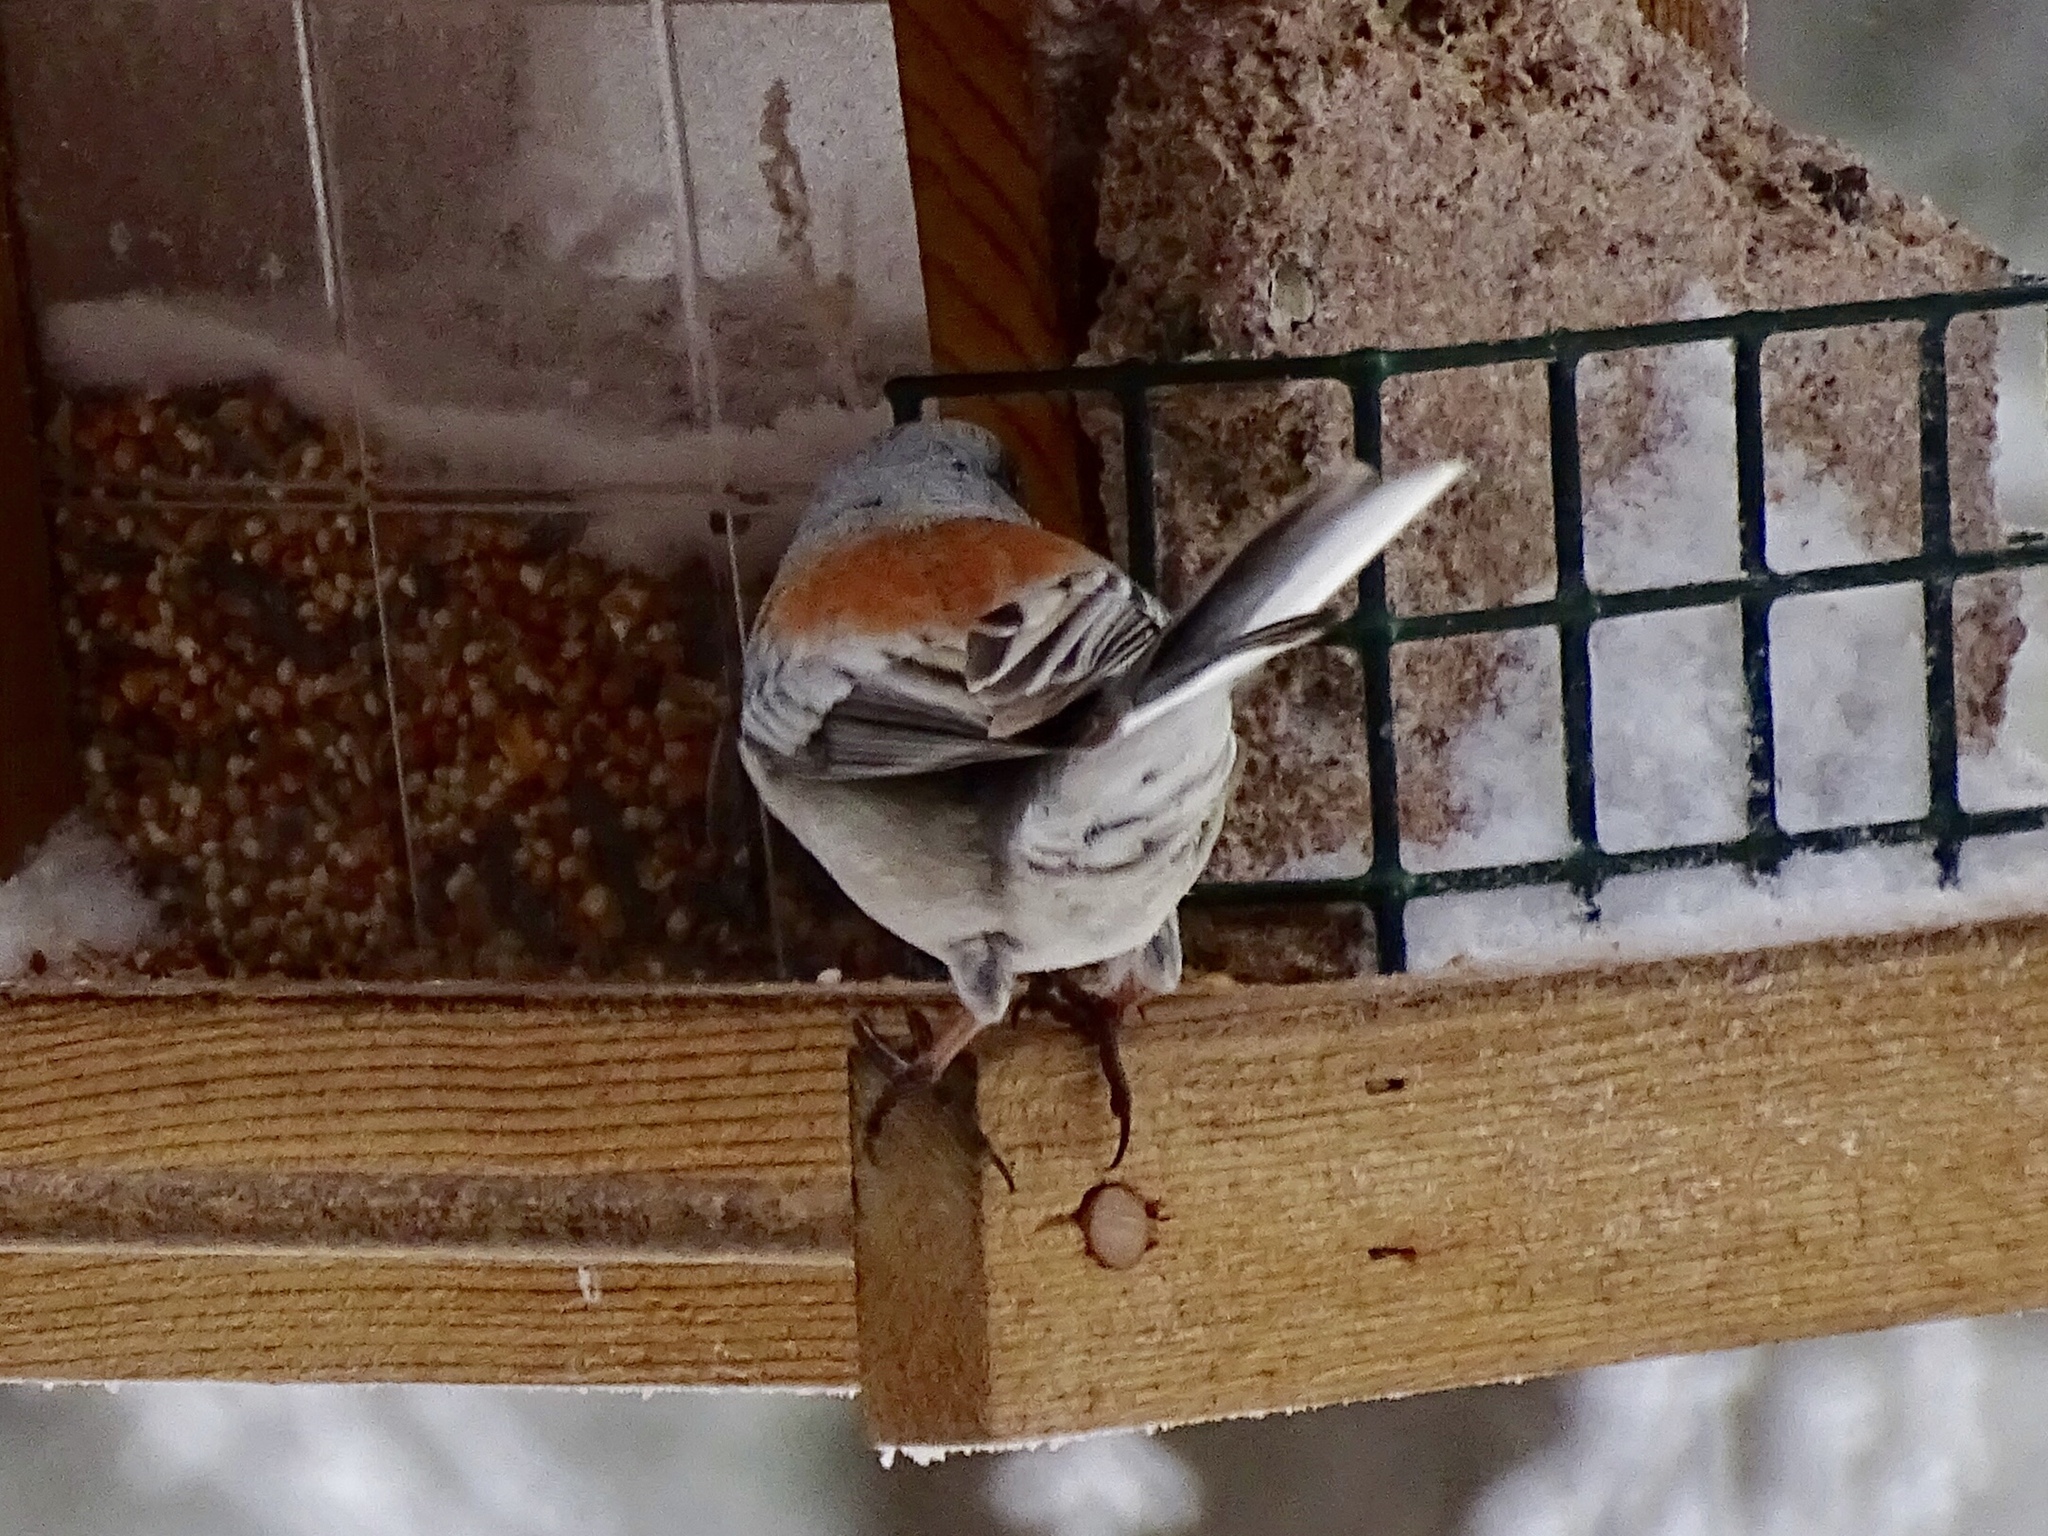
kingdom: Animalia
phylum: Chordata
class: Aves
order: Passeriformes
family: Passerellidae
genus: Junco
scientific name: Junco hyemalis
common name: Dark-eyed junco
